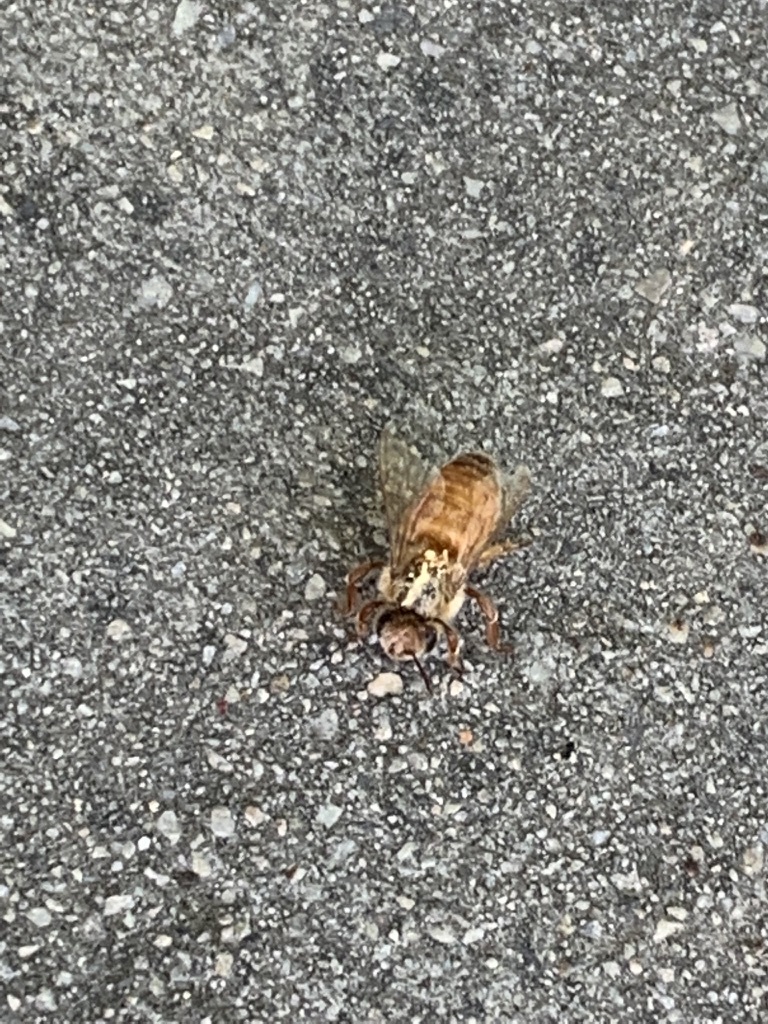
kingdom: Animalia
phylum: Arthropoda
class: Insecta
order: Hymenoptera
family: Apidae
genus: Apis
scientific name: Apis mellifera
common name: Honey bee
